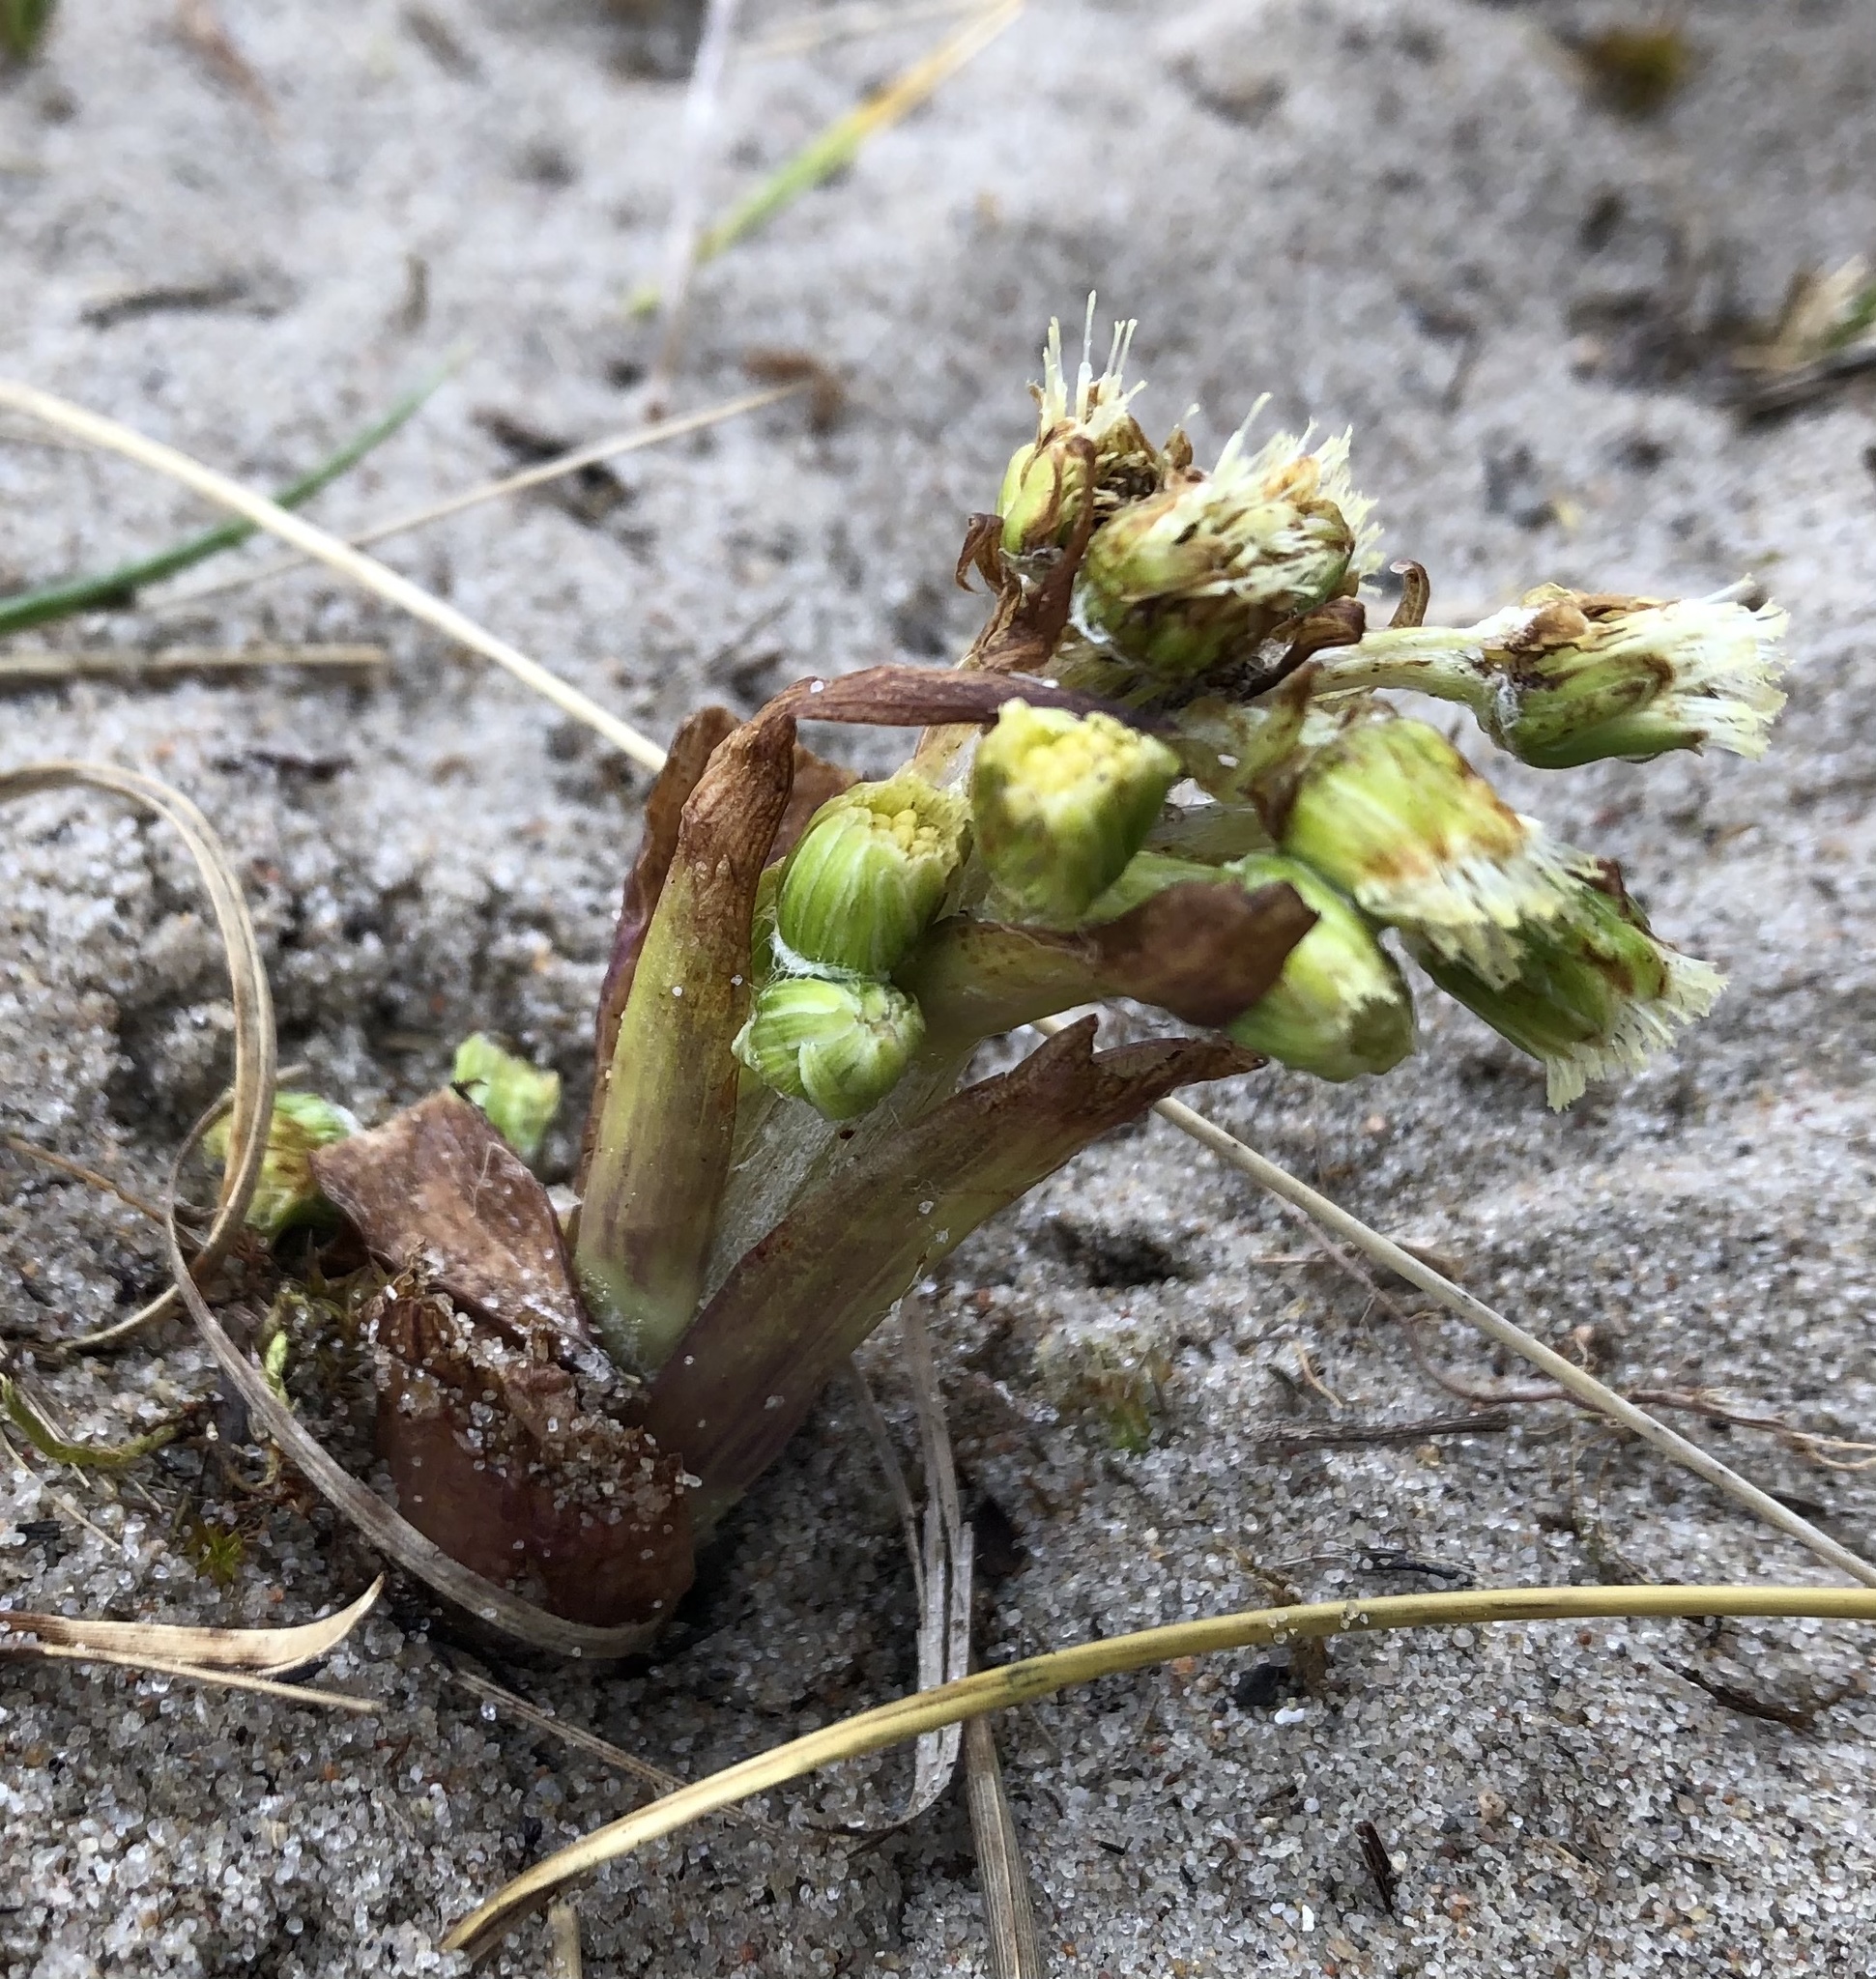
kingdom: Plantae
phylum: Tracheophyta
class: Magnoliopsida
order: Asterales
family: Asteraceae
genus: Petasites
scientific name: Petasites spurius
